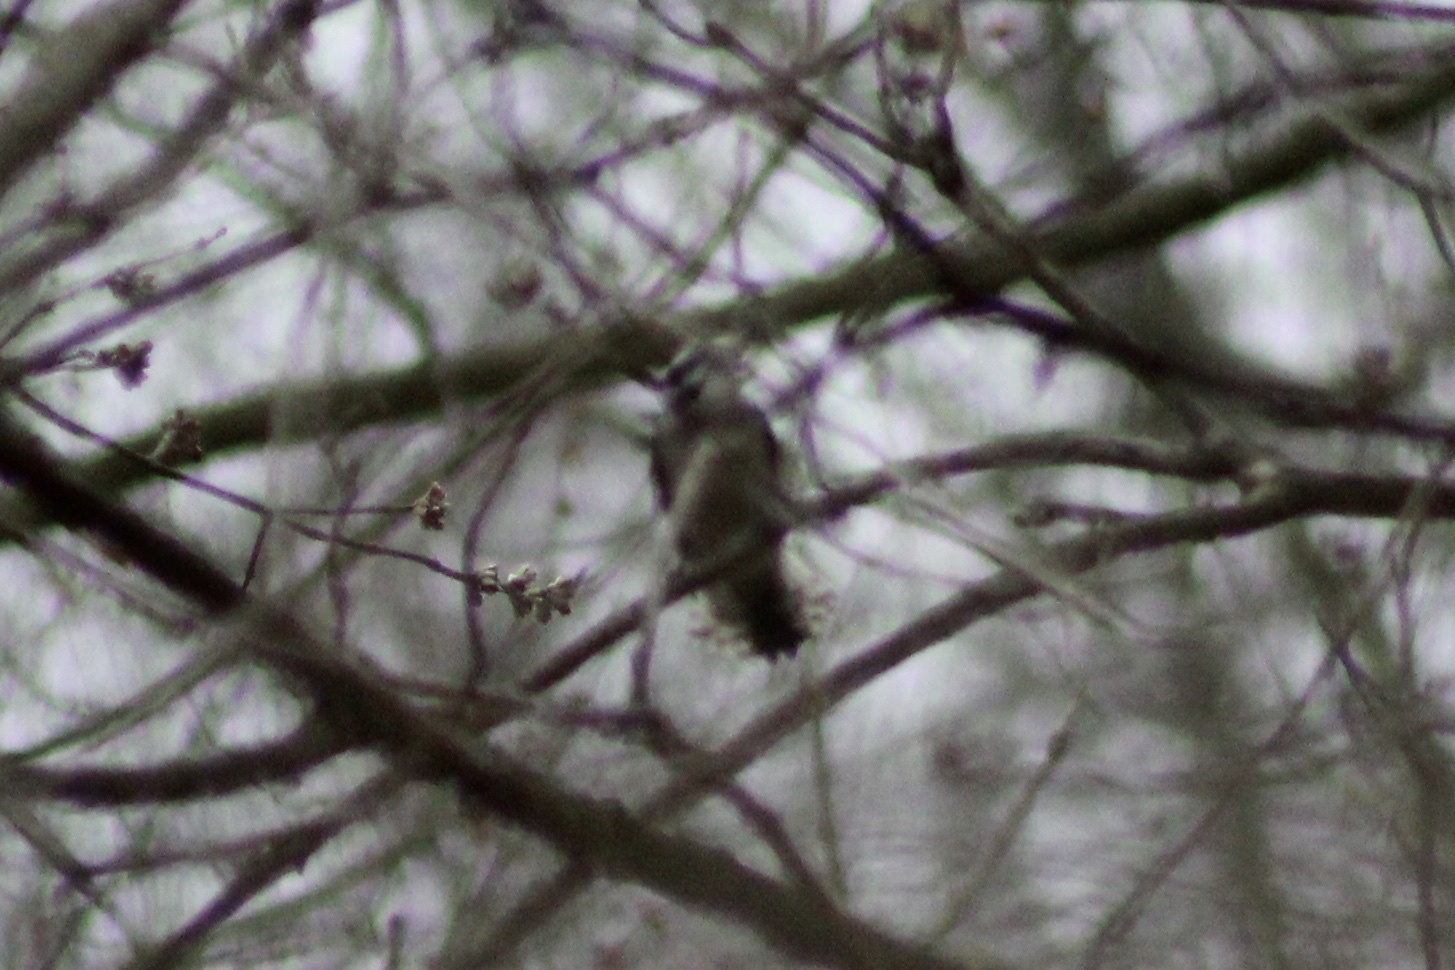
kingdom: Animalia
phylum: Chordata
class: Aves
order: Piciformes
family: Picidae
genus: Dryobates
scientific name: Dryobates pubescens
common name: Downy woodpecker
